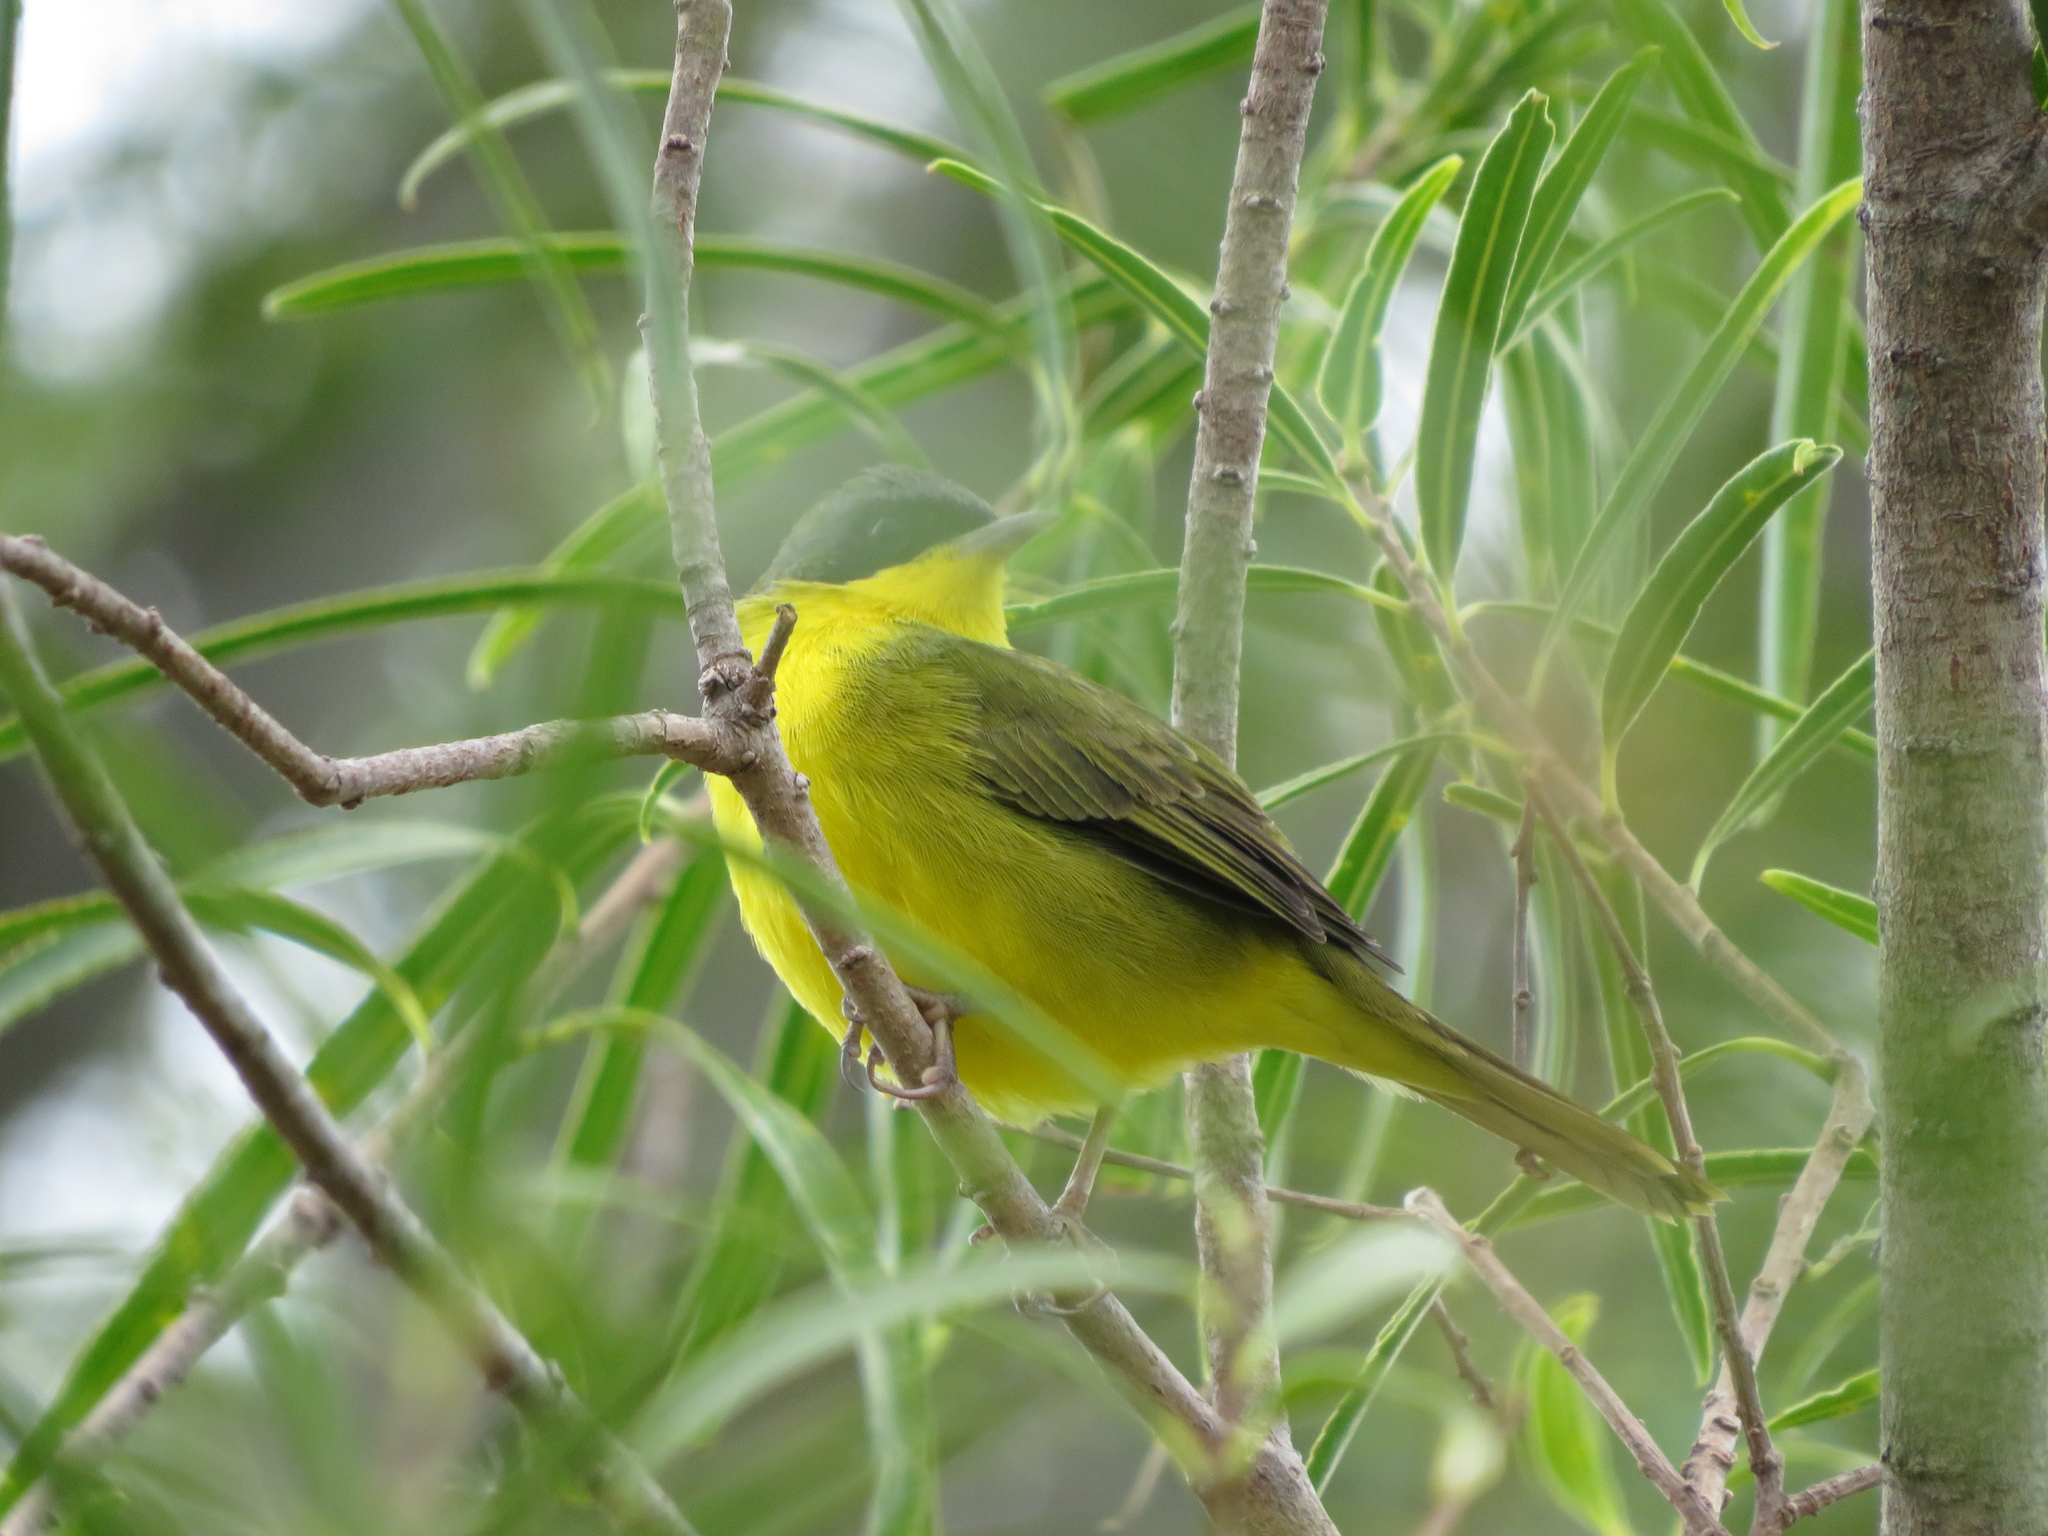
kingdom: Animalia
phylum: Chordata
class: Aves
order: Passeriformes
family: Parulidae
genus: Geothlypis
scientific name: Geothlypis velata
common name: Southern yellowthroat
